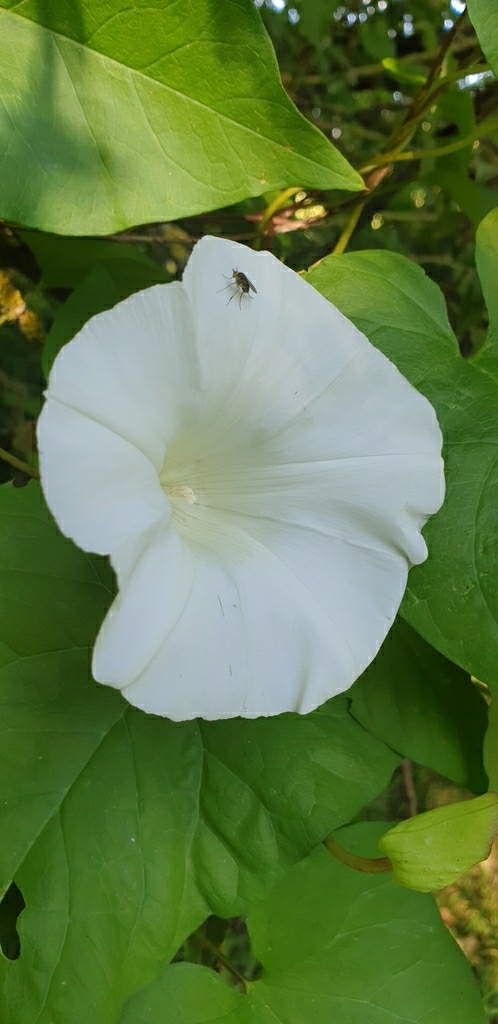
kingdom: Plantae
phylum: Tracheophyta
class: Magnoliopsida
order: Solanales
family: Convolvulaceae
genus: Calystegia
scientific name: Calystegia silvatica
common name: Large bindweed
